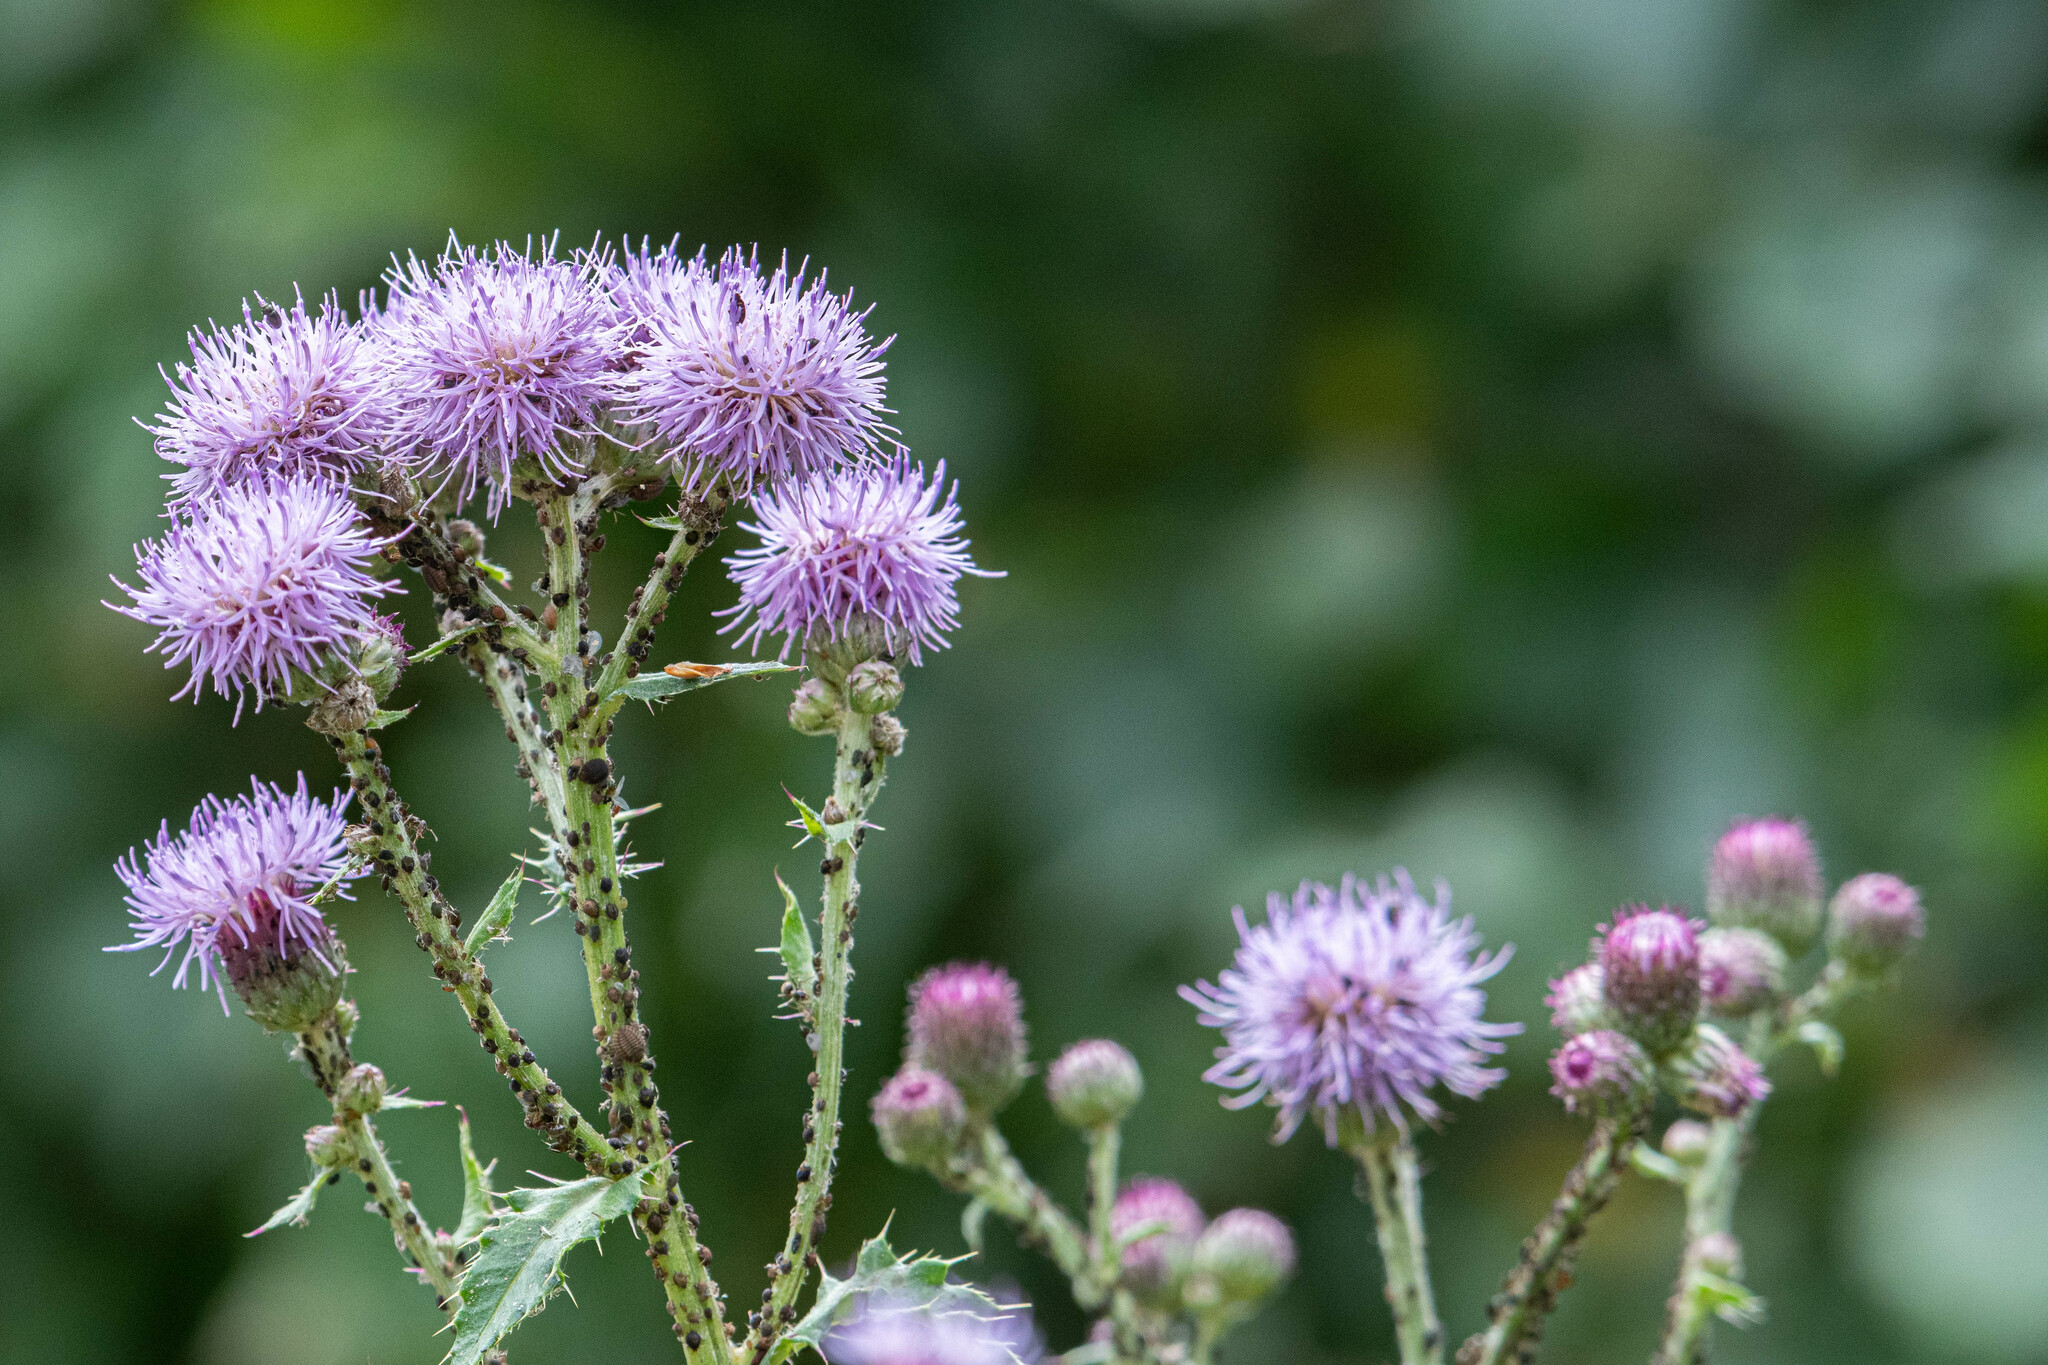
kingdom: Plantae
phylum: Tracheophyta
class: Magnoliopsida
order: Asterales
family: Asteraceae
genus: Cirsium
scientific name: Cirsium arvense
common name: Creeping thistle
